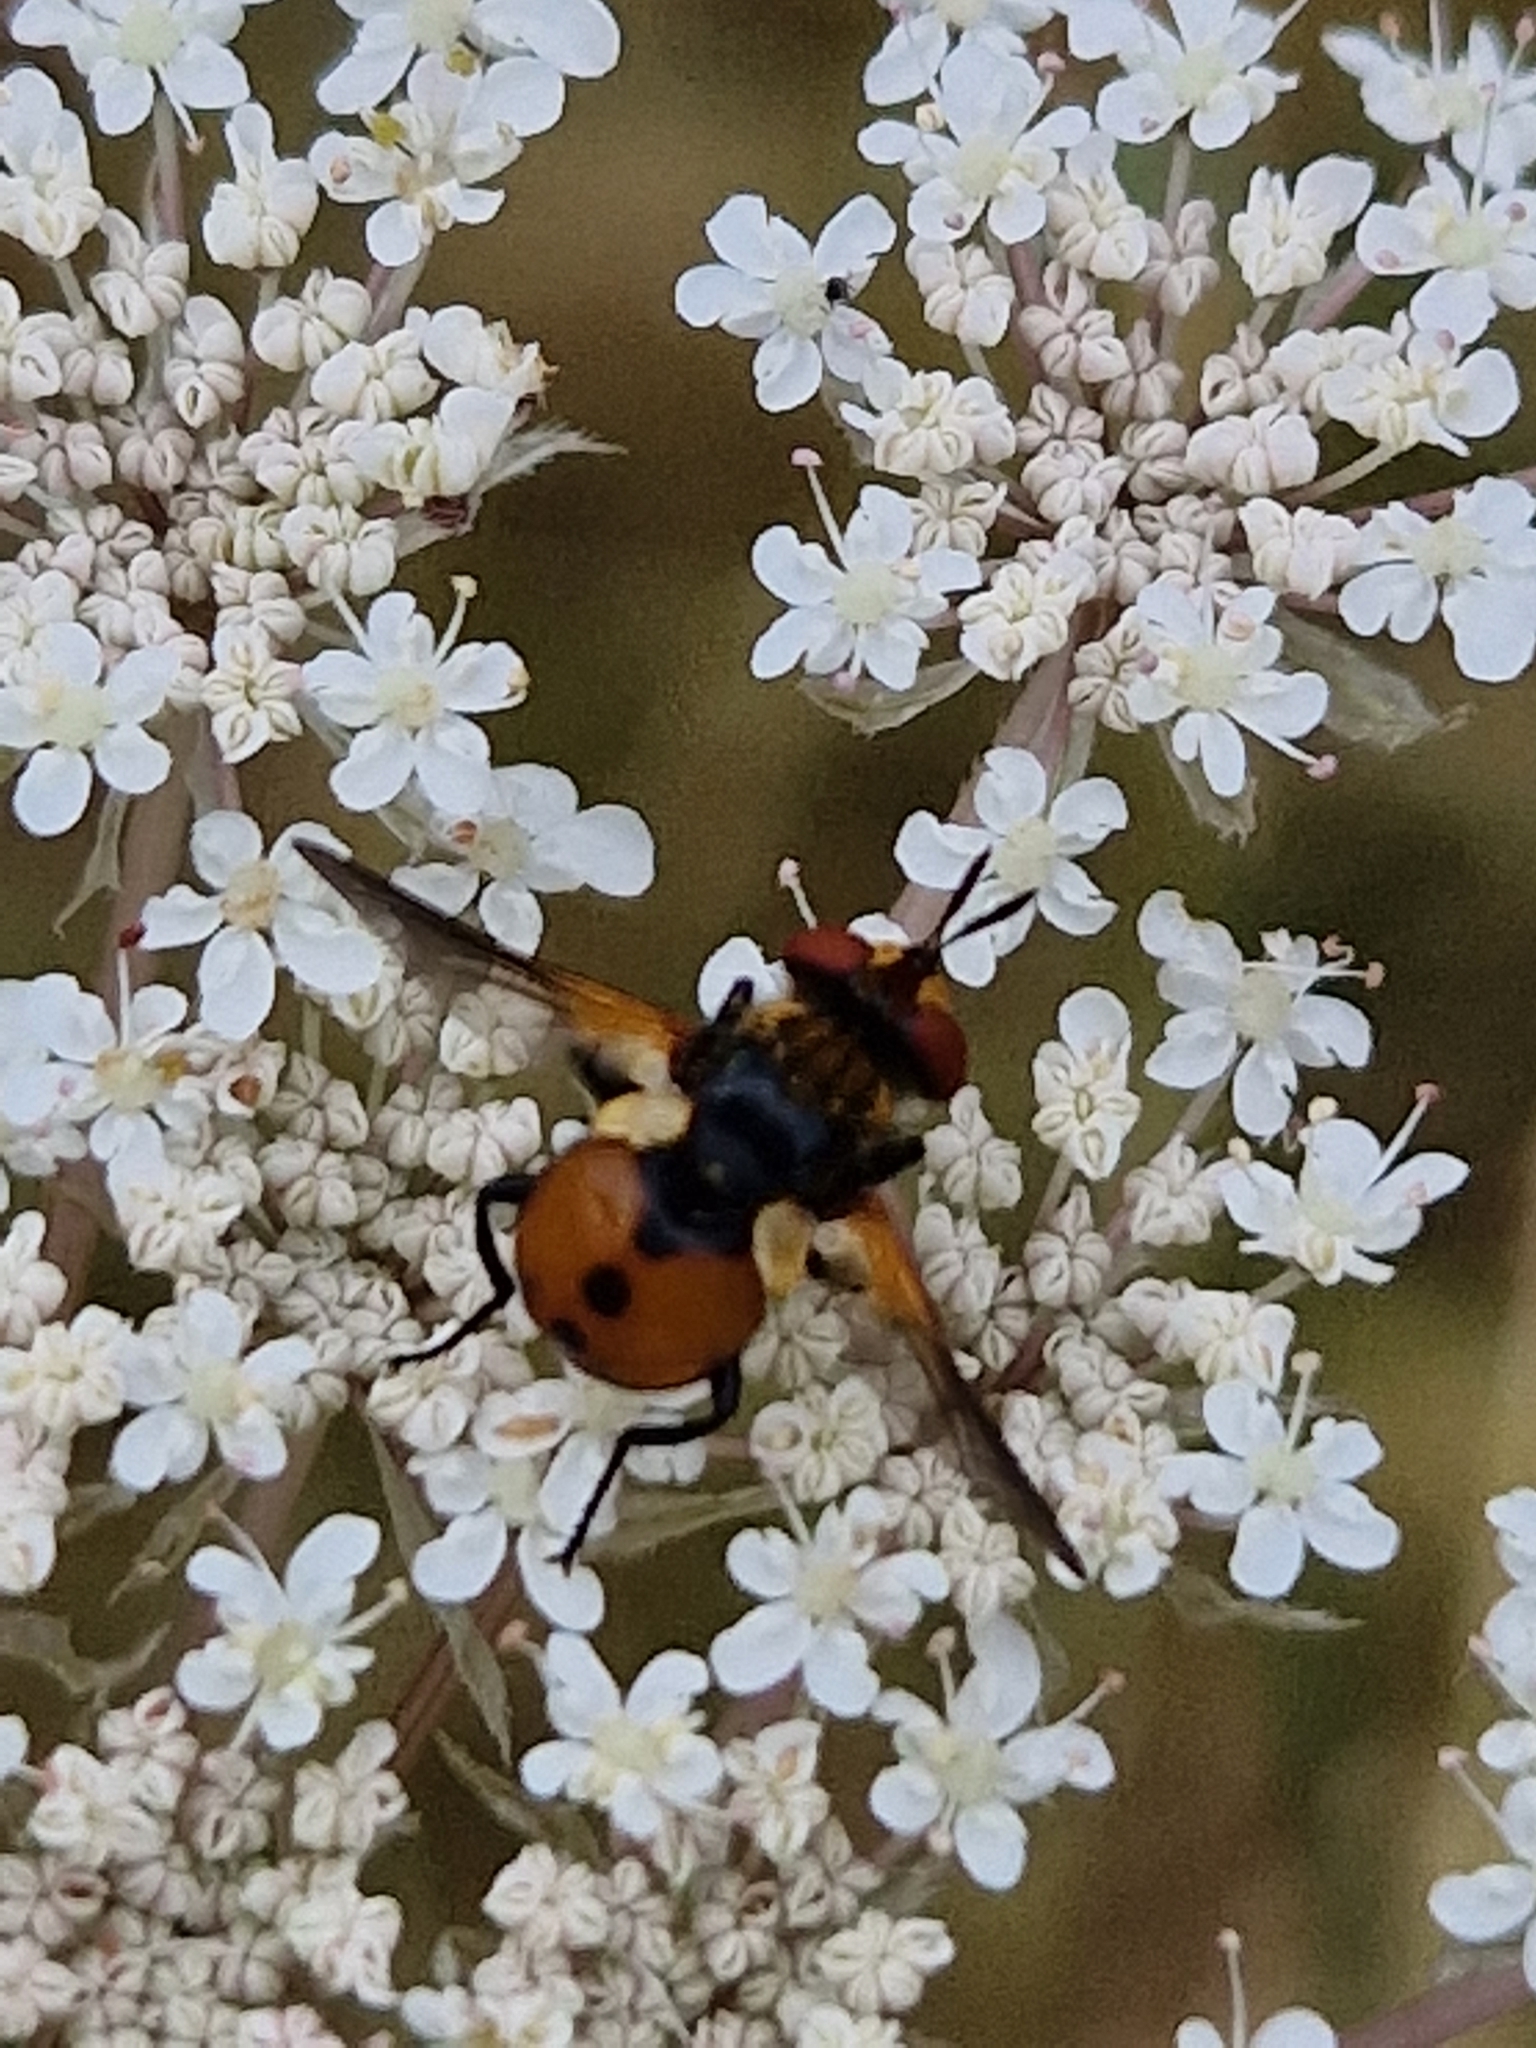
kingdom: Animalia
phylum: Arthropoda
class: Insecta
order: Diptera
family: Tachinidae
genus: Gymnosoma
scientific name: Gymnosoma rotundatum
